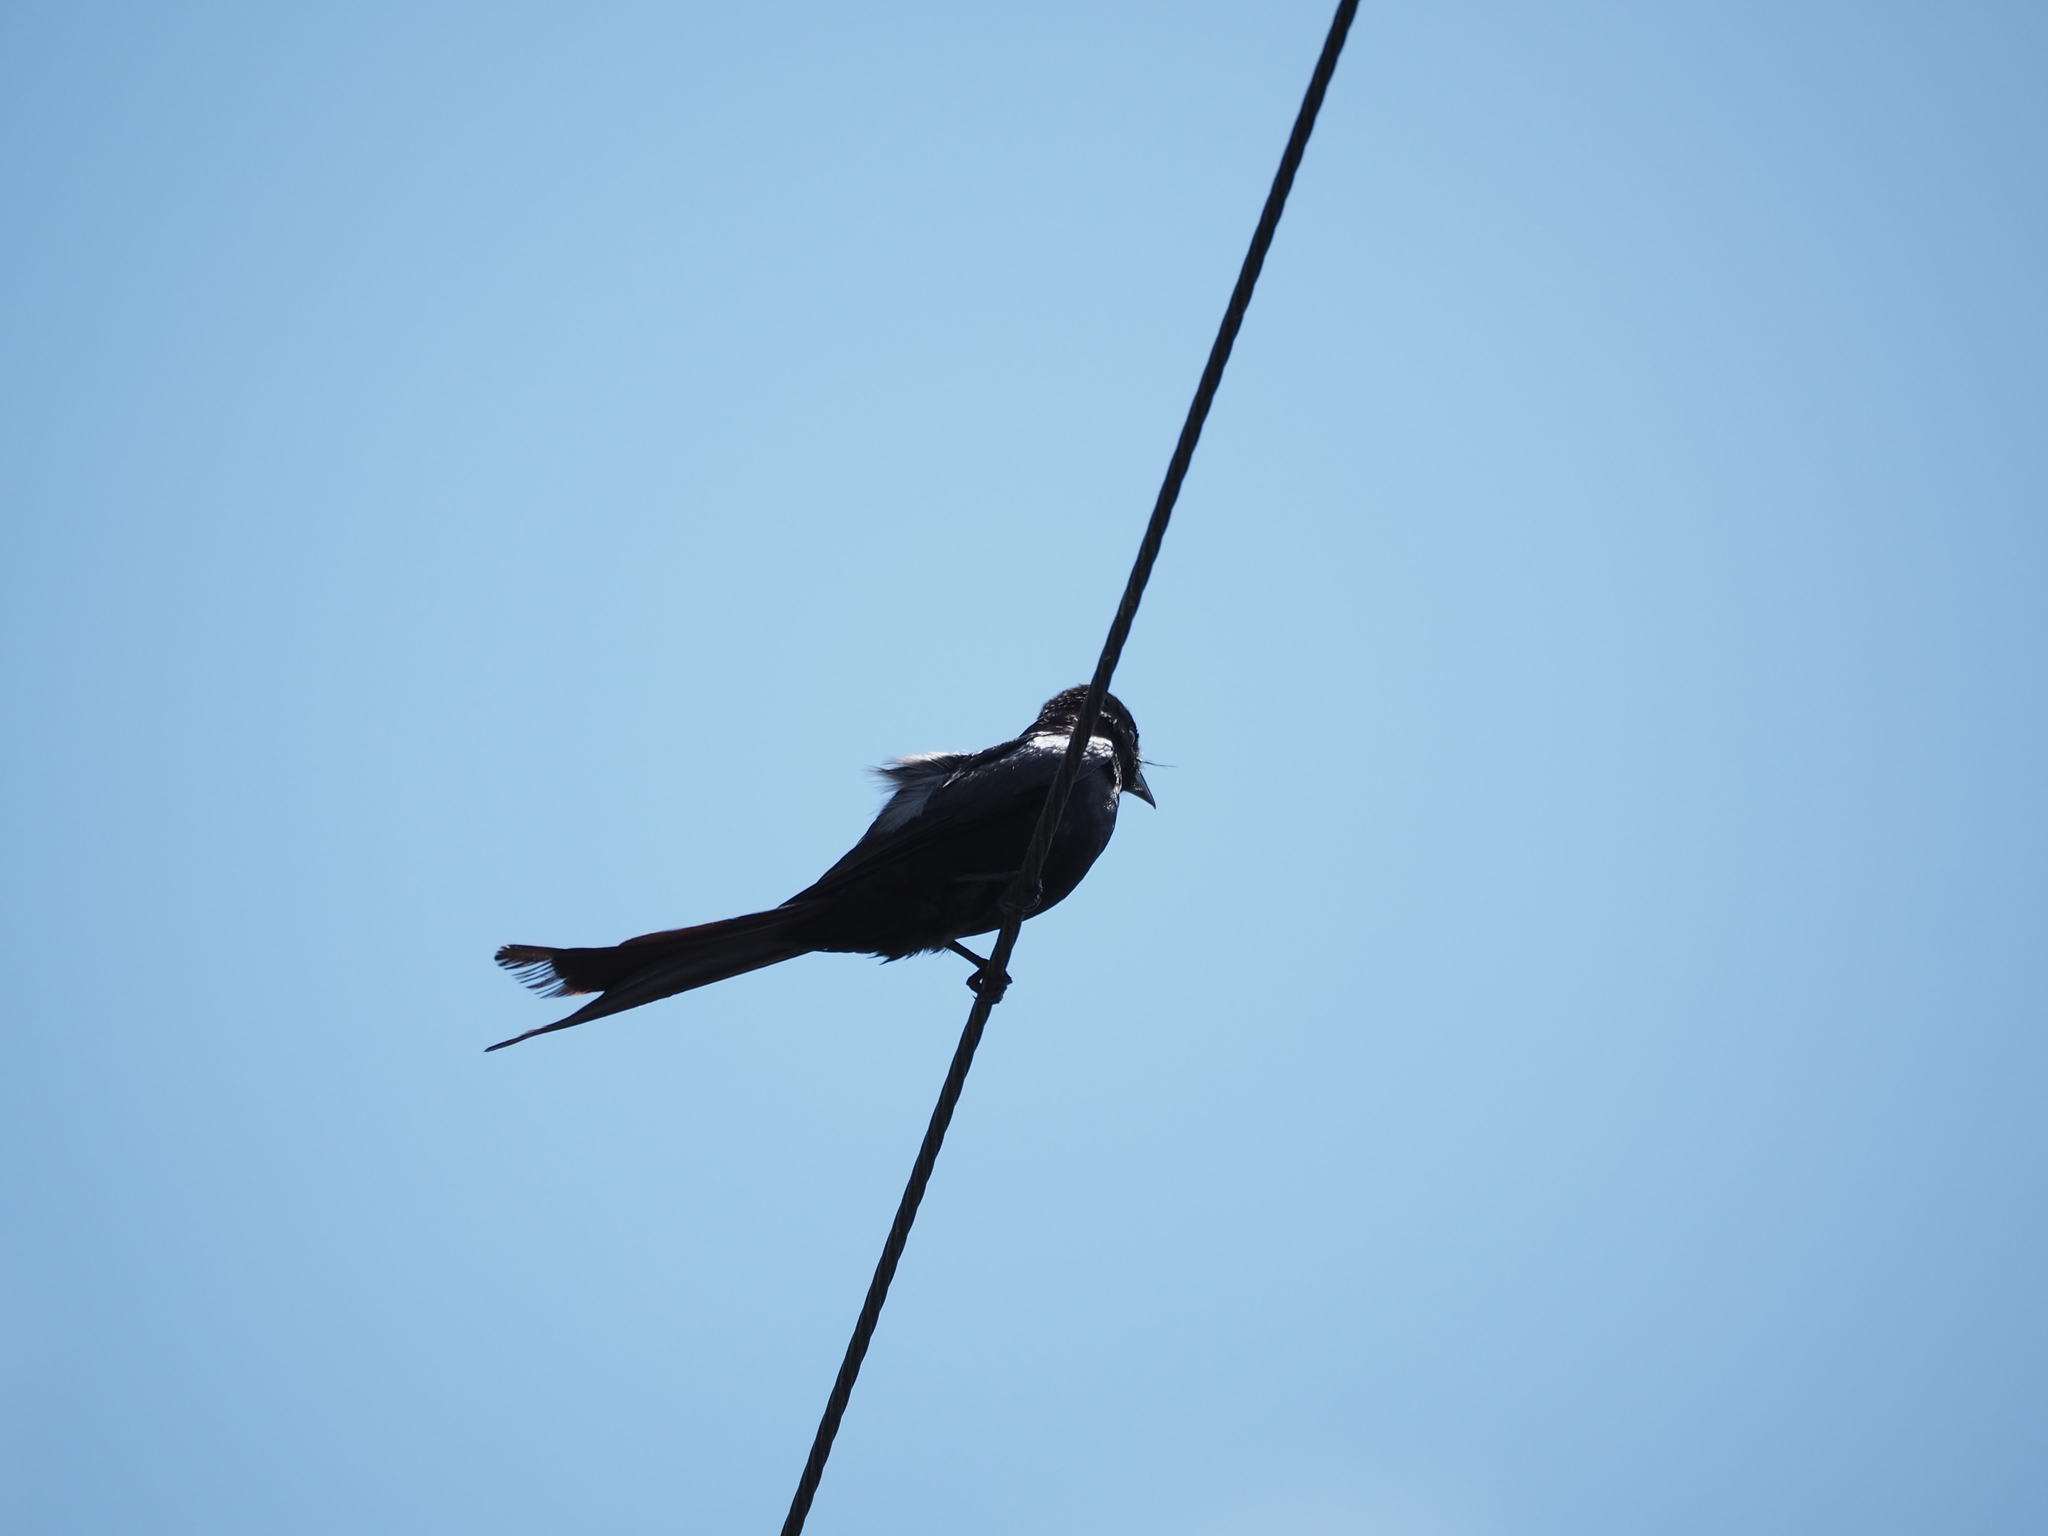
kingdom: Animalia
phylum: Chordata
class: Aves
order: Passeriformes
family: Dicruridae
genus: Dicrurus
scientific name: Dicrurus macrocercus
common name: Black drongo
